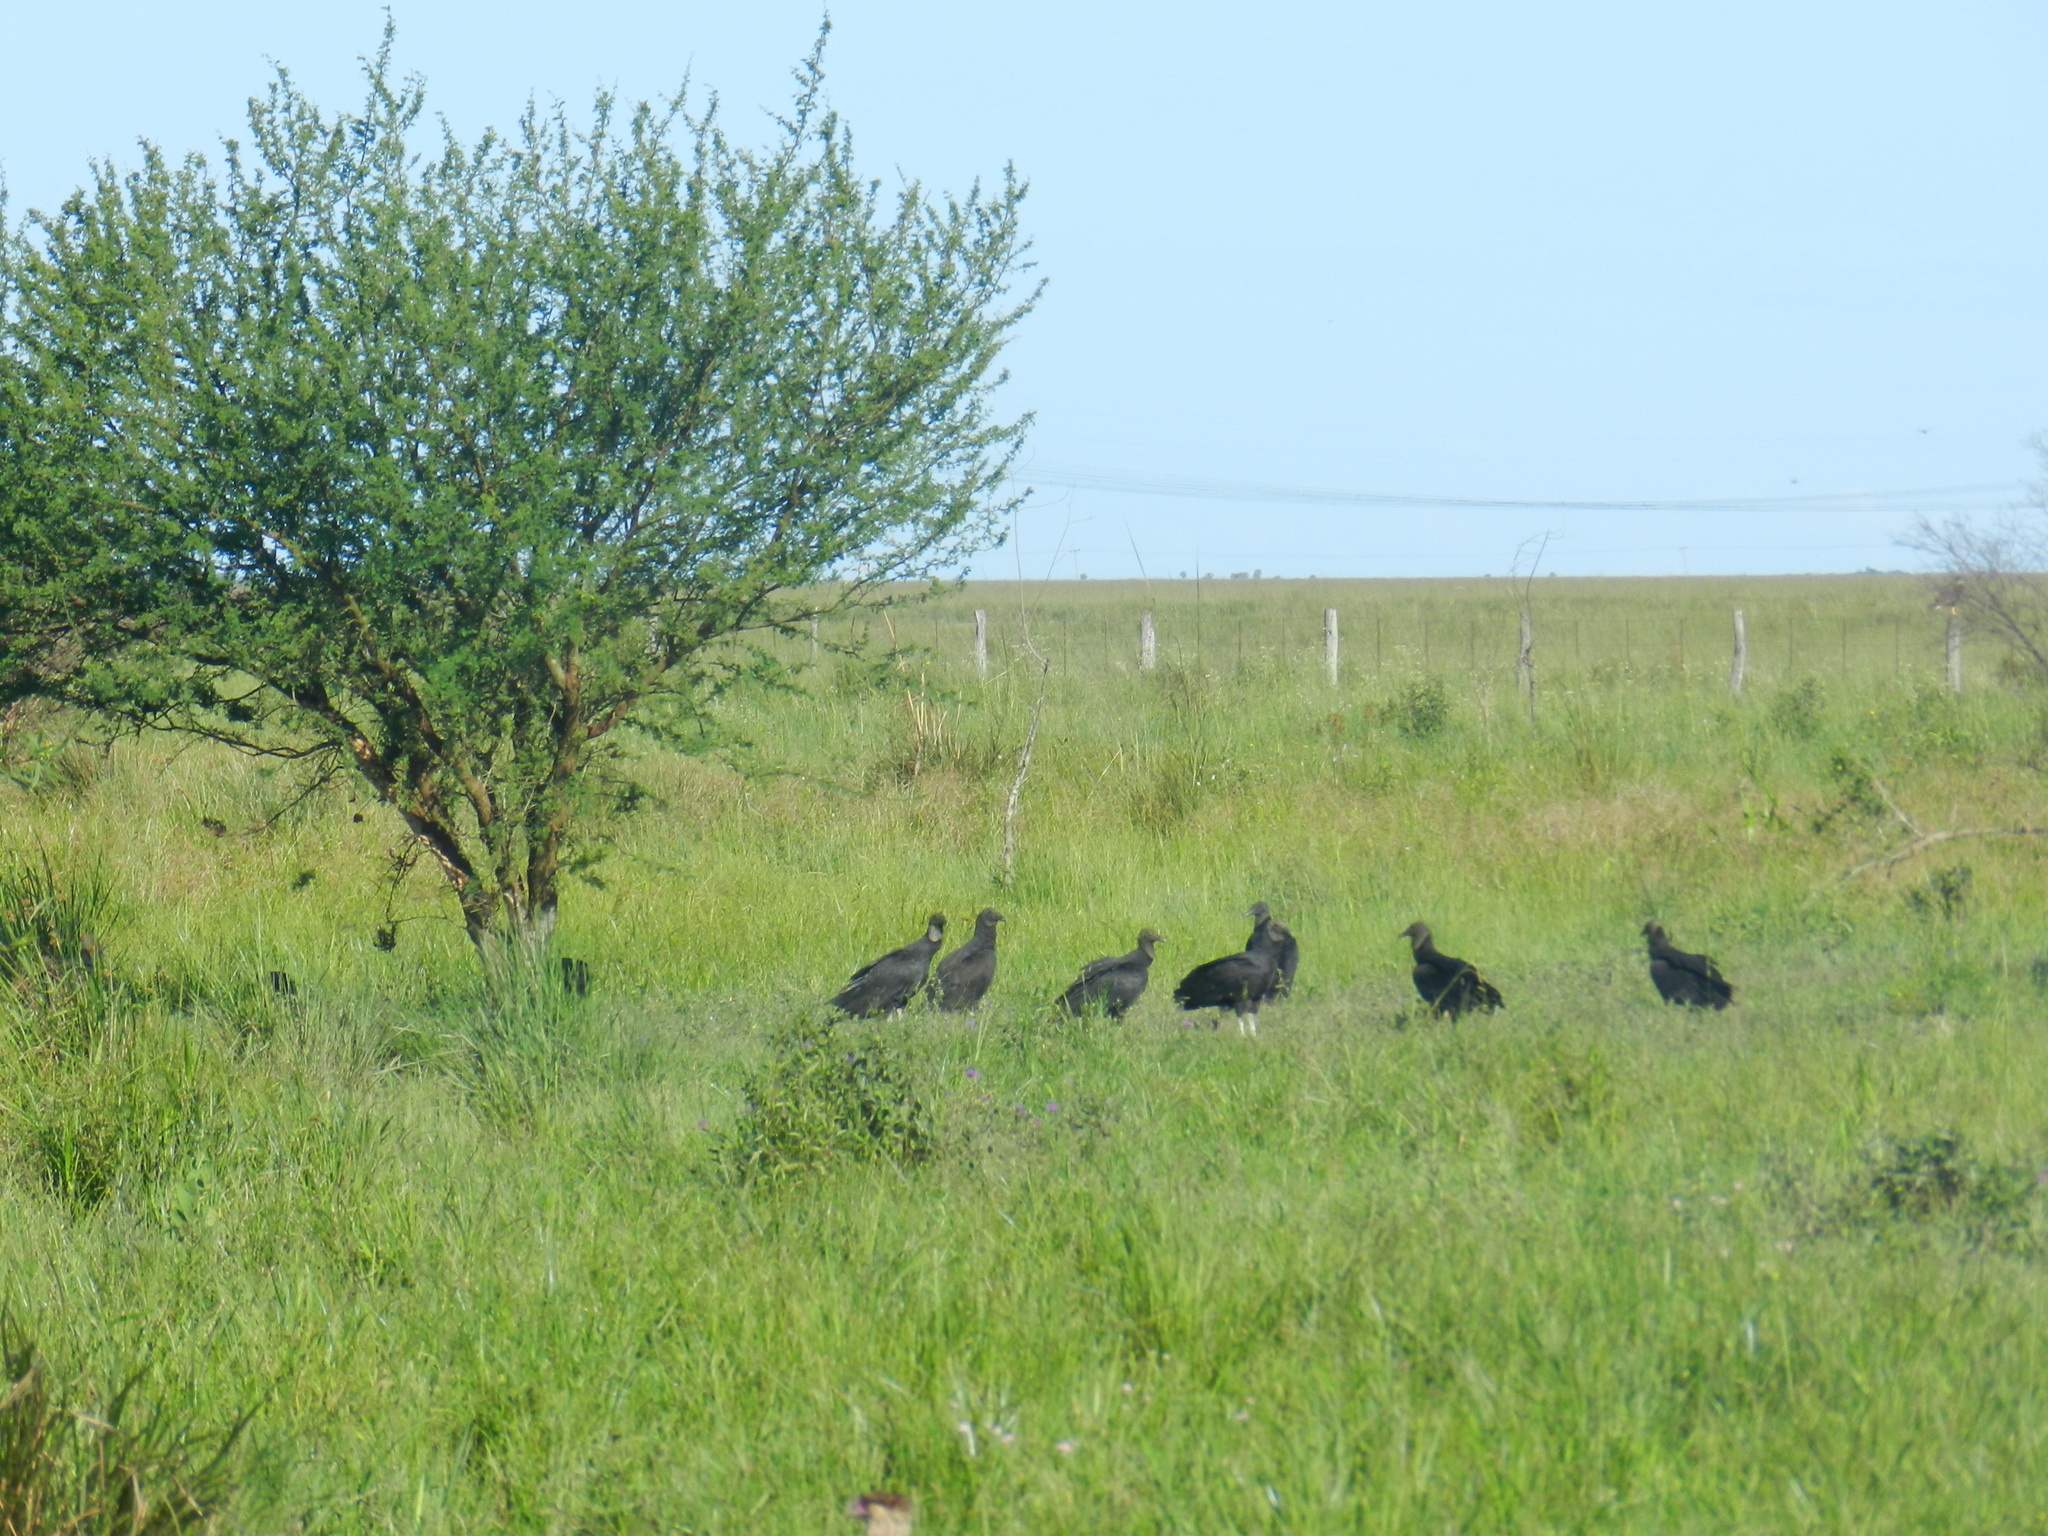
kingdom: Animalia
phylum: Chordata
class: Aves
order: Accipitriformes
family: Cathartidae
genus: Coragyps
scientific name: Coragyps atratus
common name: Black vulture
